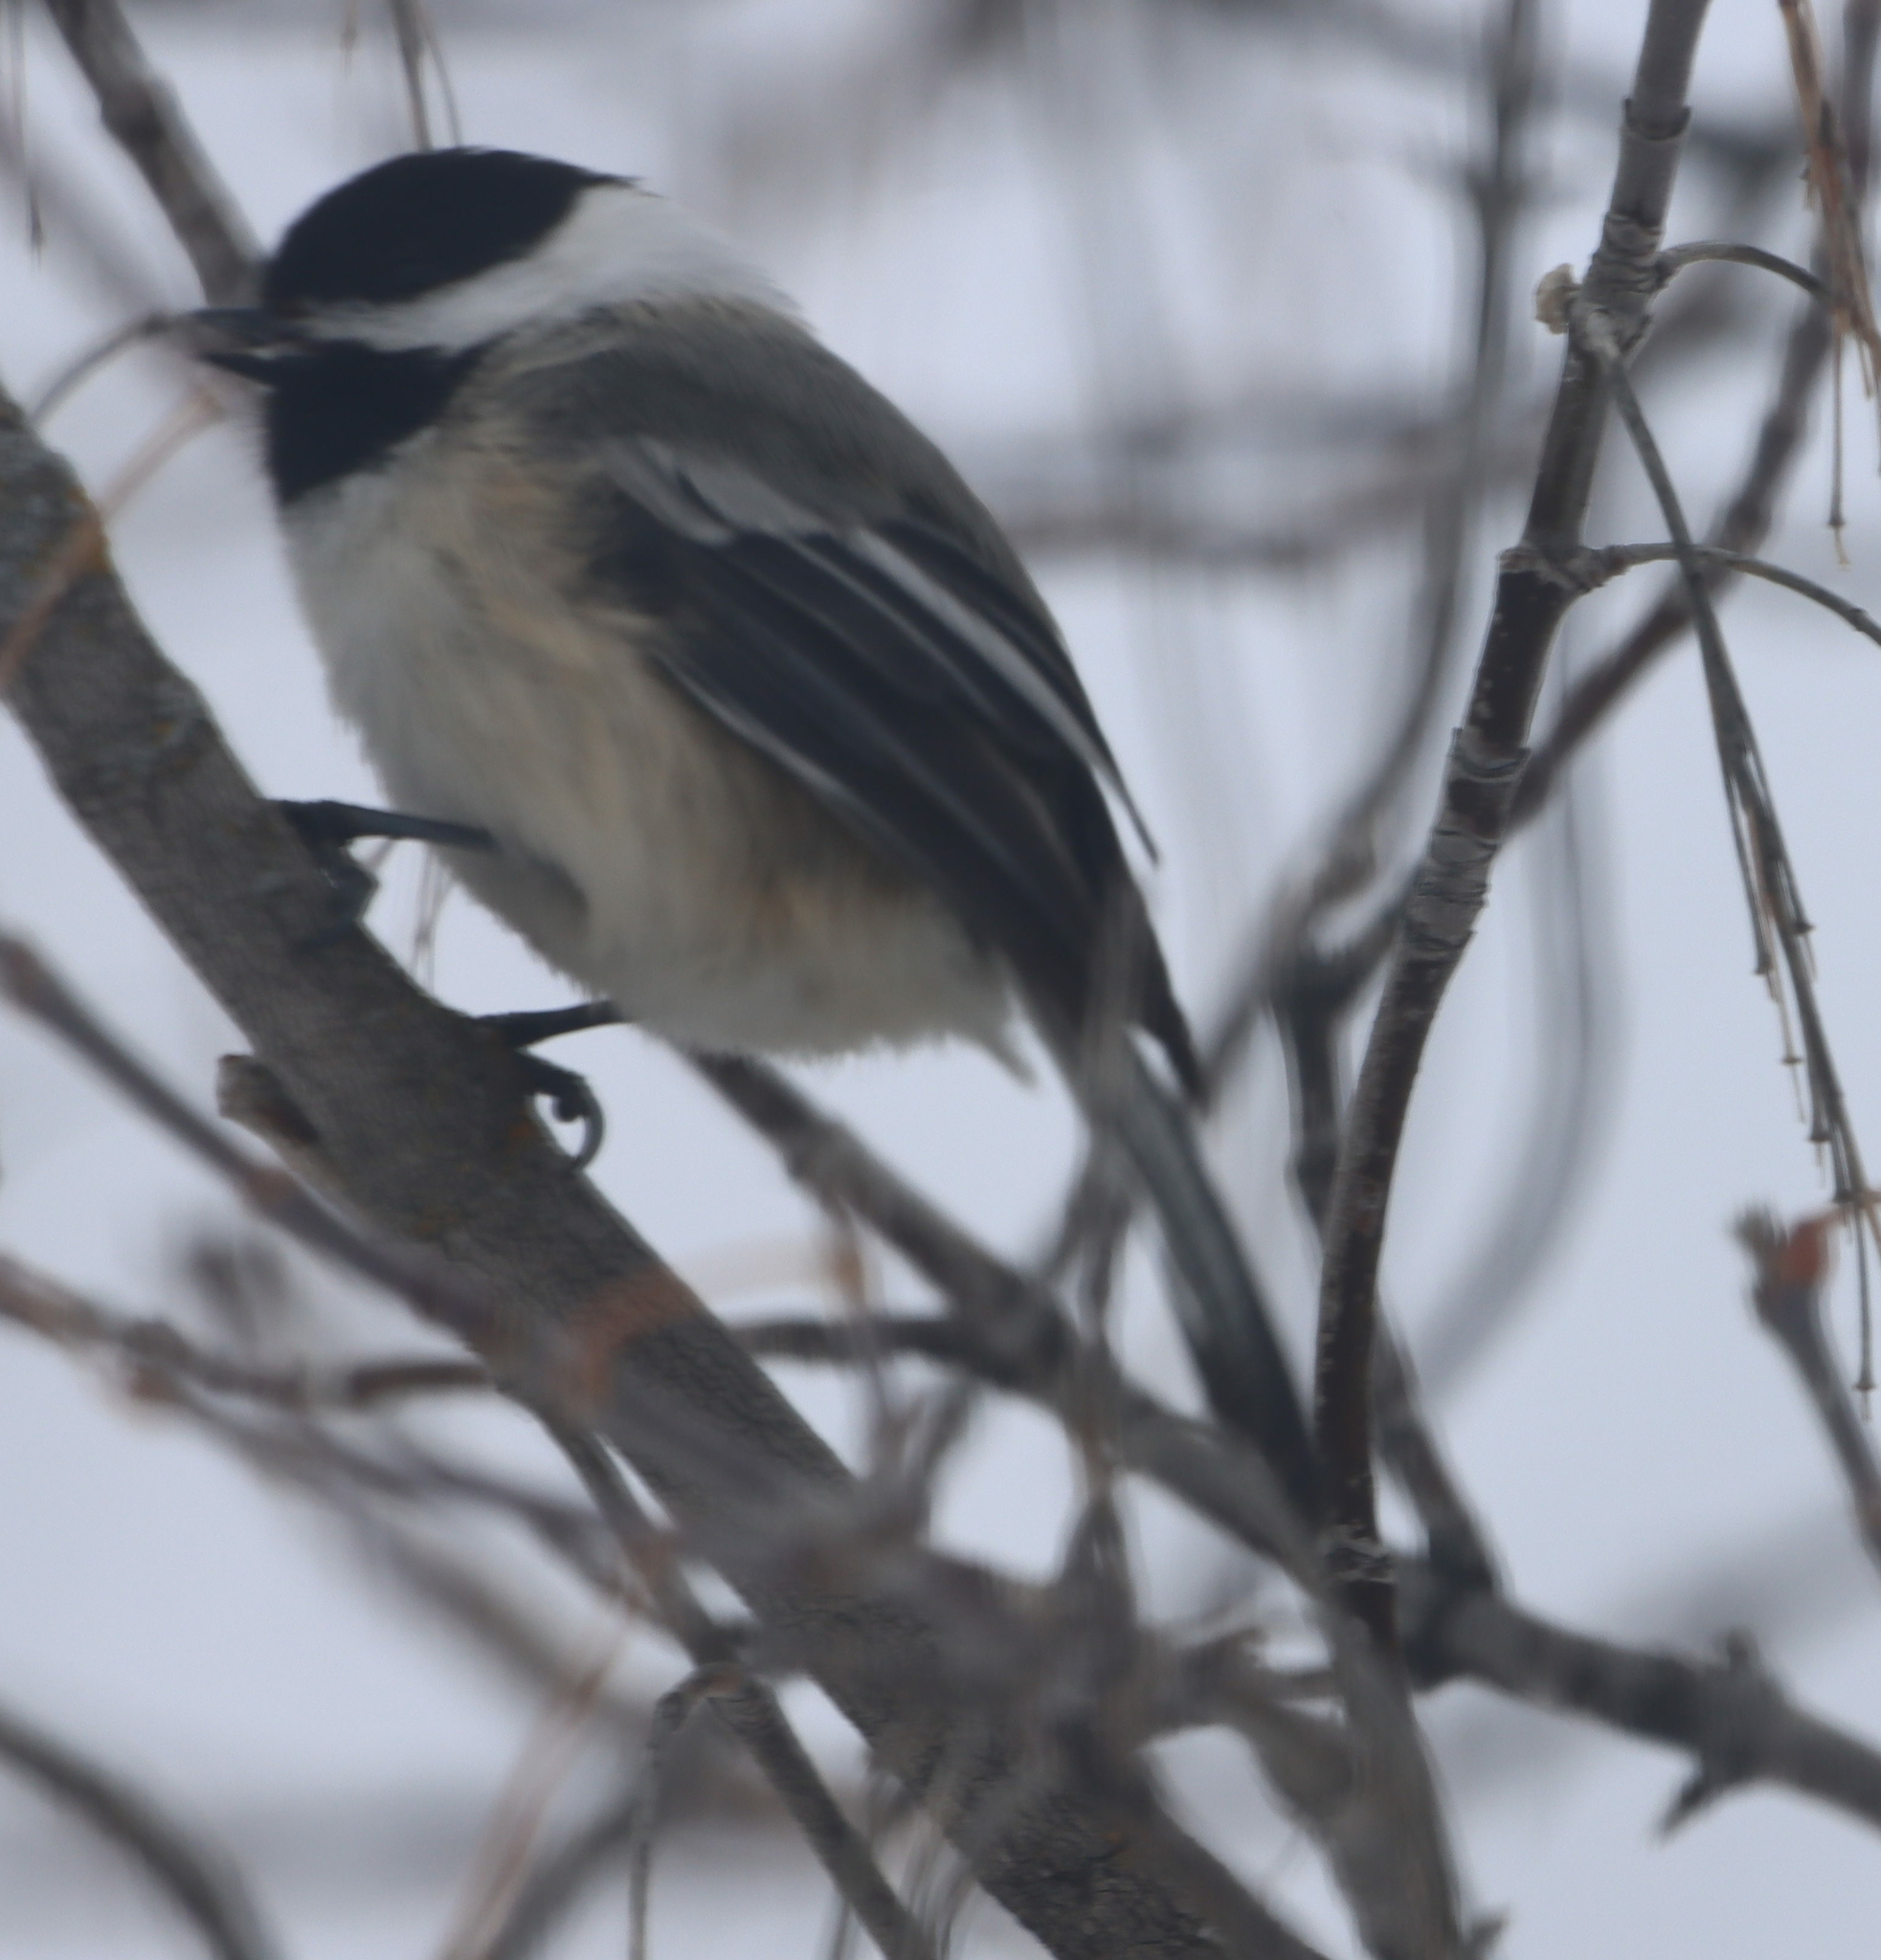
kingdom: Animalia
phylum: Chordata
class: Aves
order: Passeriformes
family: Paridae
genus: Poecile
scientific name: Poecile atricapillus
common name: Black-capped chickadee
